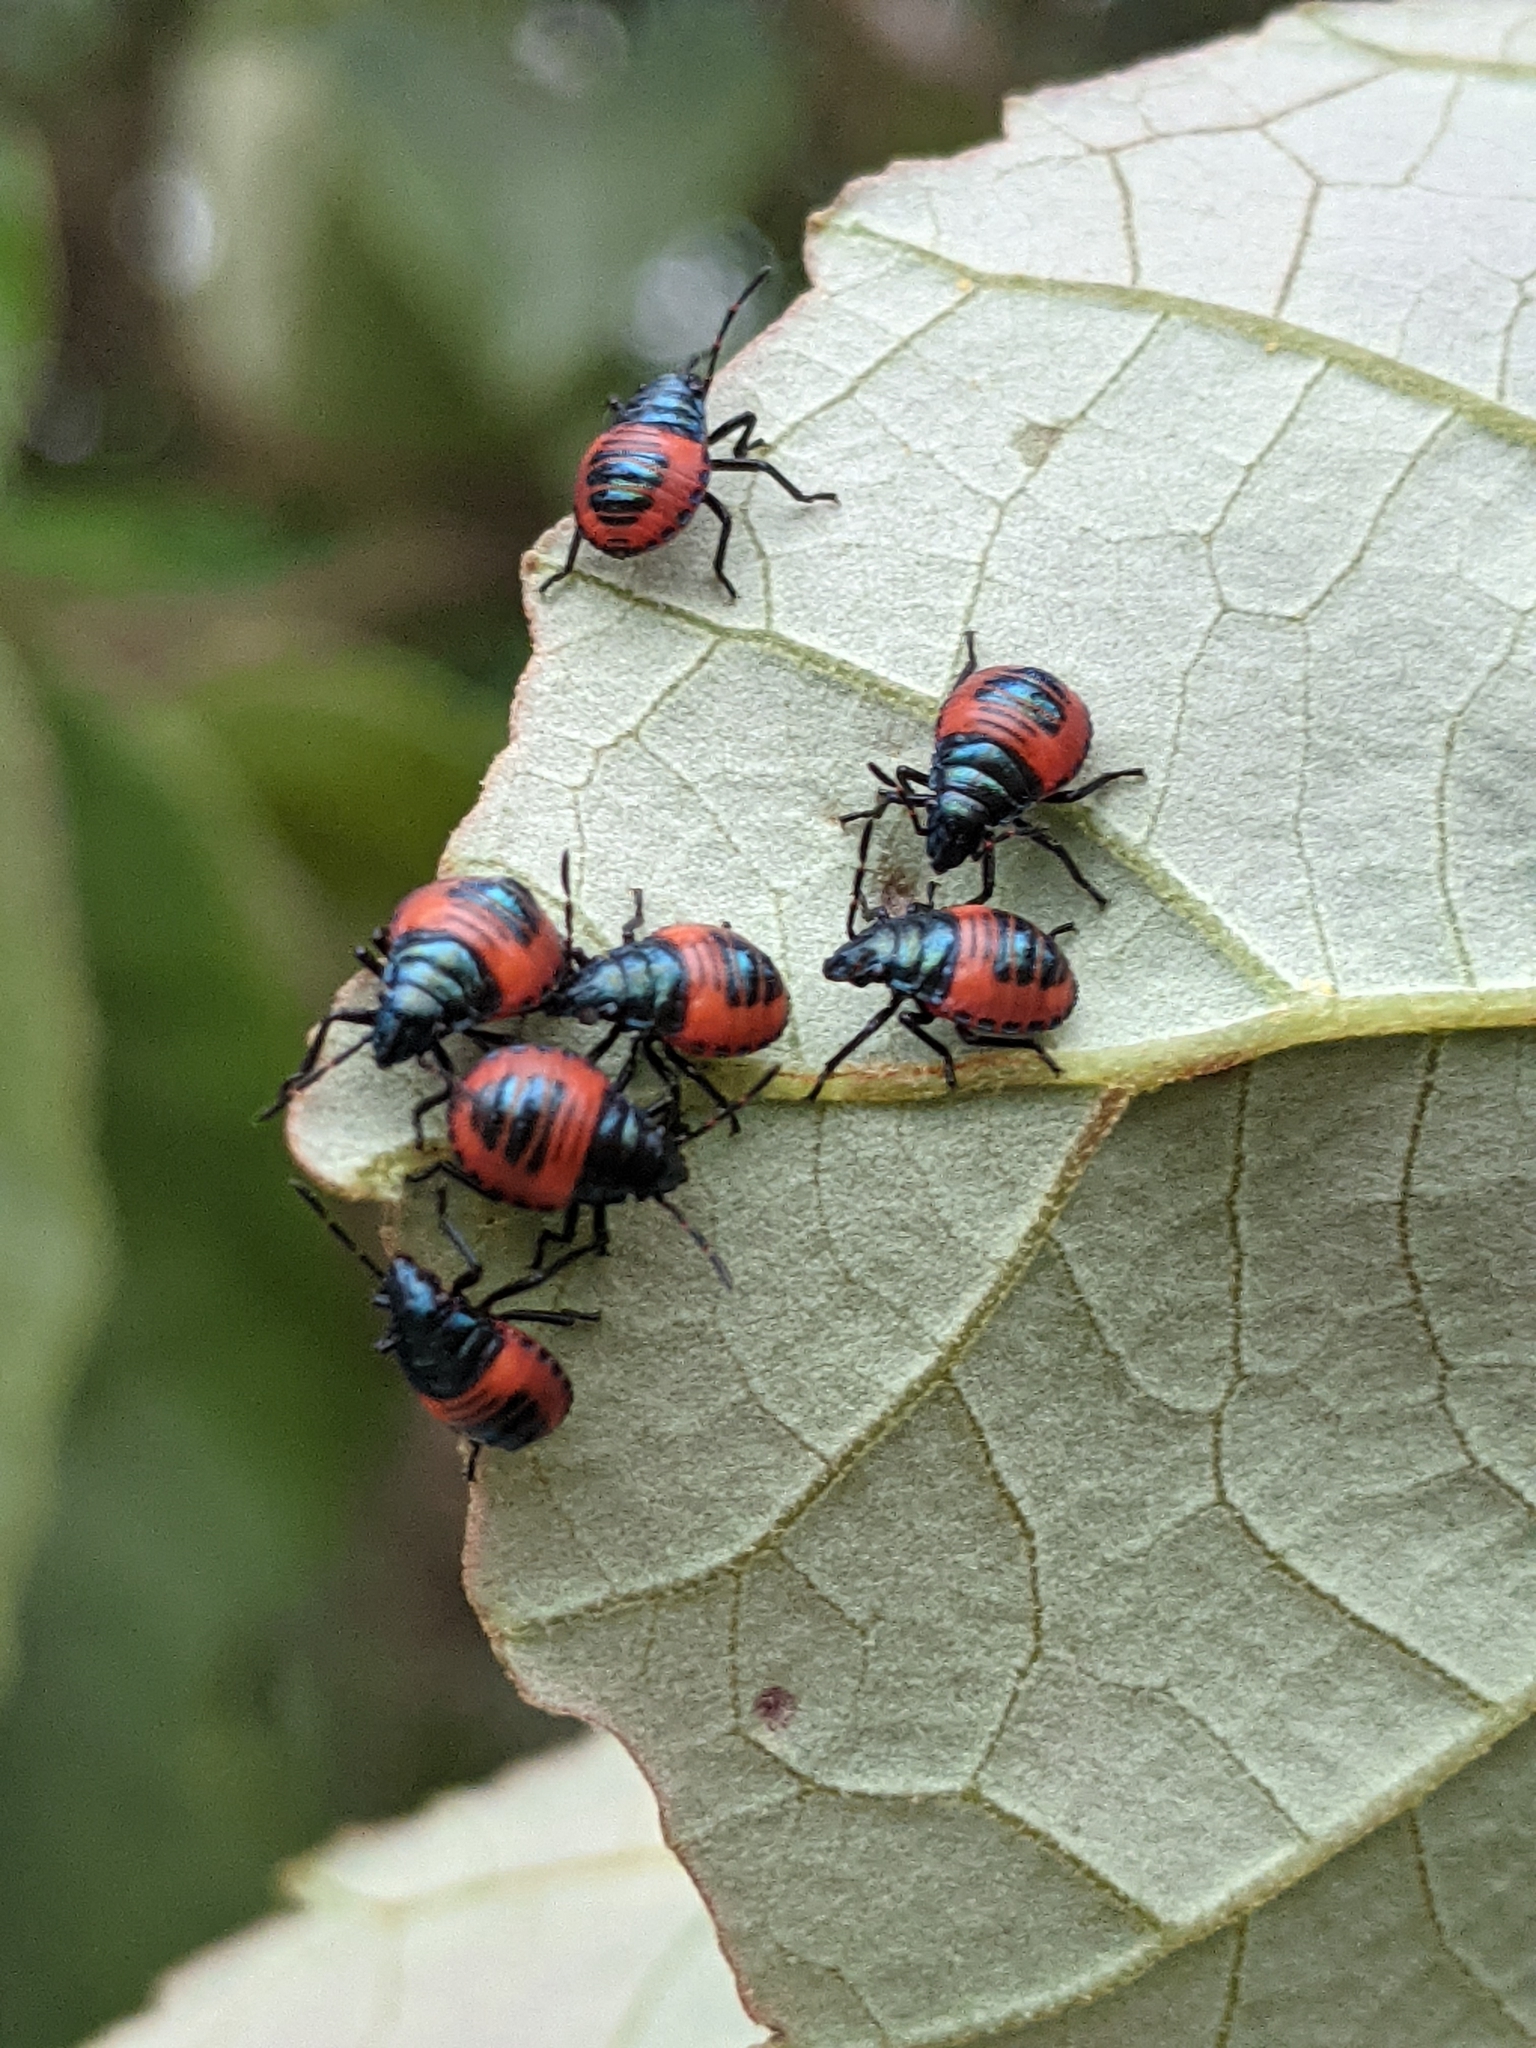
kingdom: Animalia
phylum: Arthropoda
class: Insecta
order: Hemiptera
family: Scutelleridae
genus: Tectocoris
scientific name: Tectocoris diophthalmus
